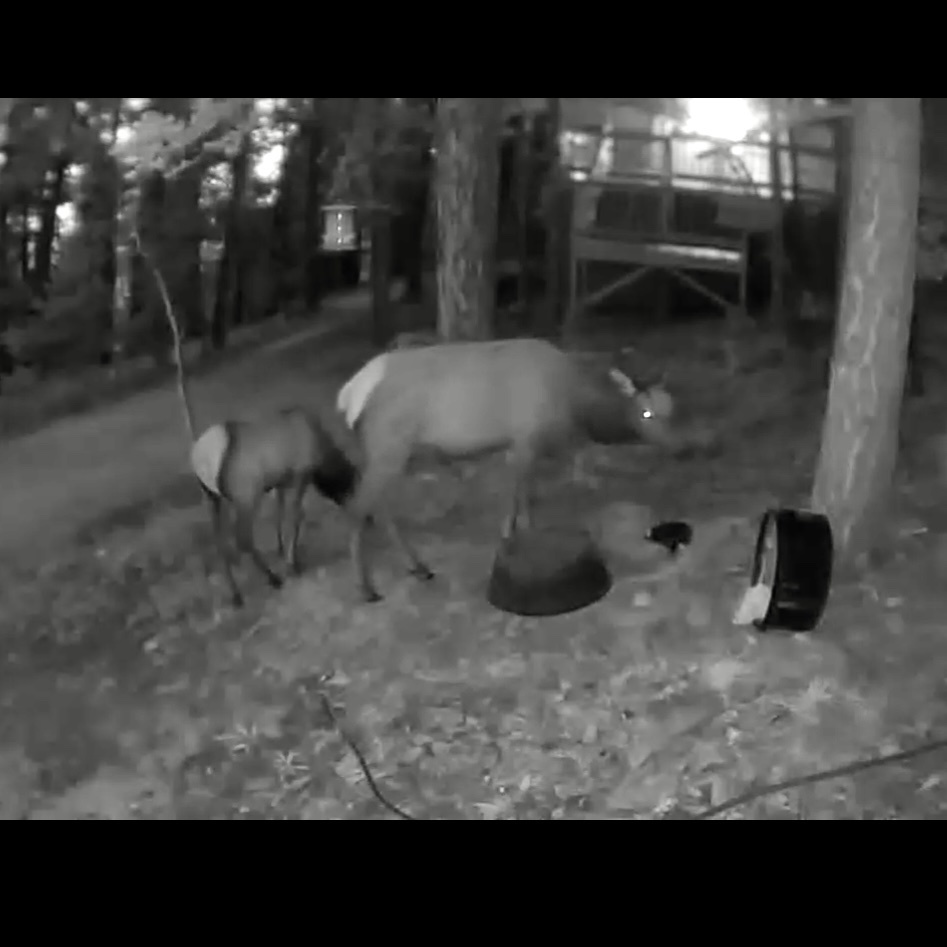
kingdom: Animalia
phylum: Chordata
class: Mammalia
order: Artiodactyla
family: Cervidae
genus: Cervus
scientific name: Cervus elaphus
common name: Red deer
